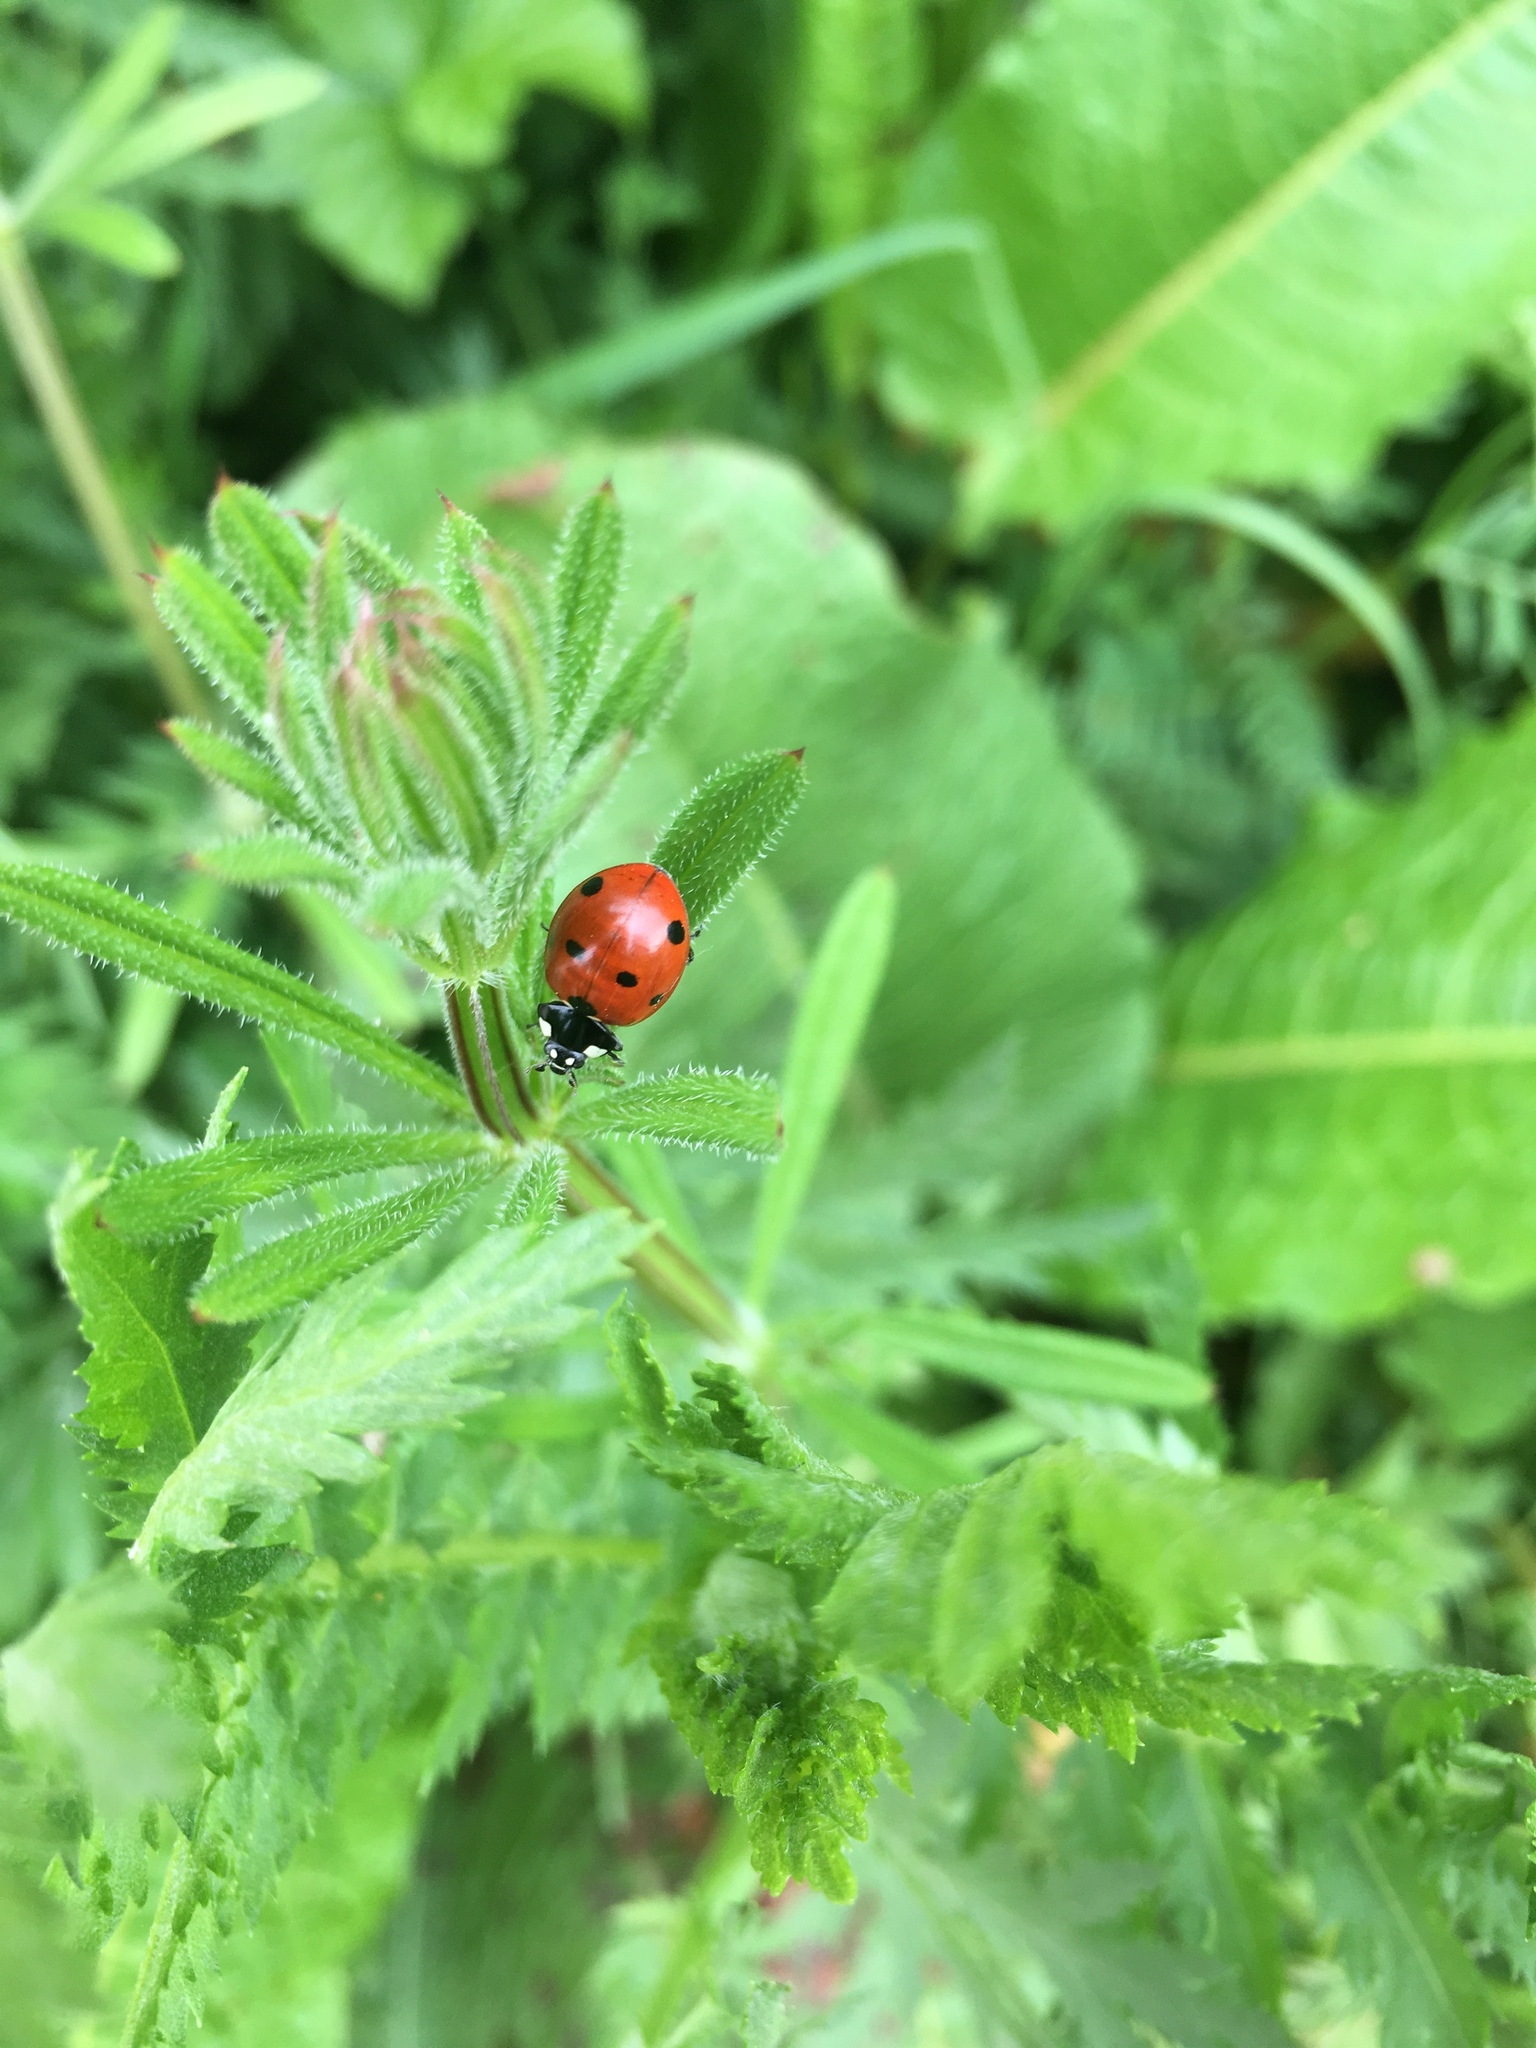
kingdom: Animalia
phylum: Arthropoda
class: Insecta
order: Coleoptera
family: Coccinellidae
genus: Coccinella
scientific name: Coccinella septempunctata
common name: Sevenspotted lady beetle
